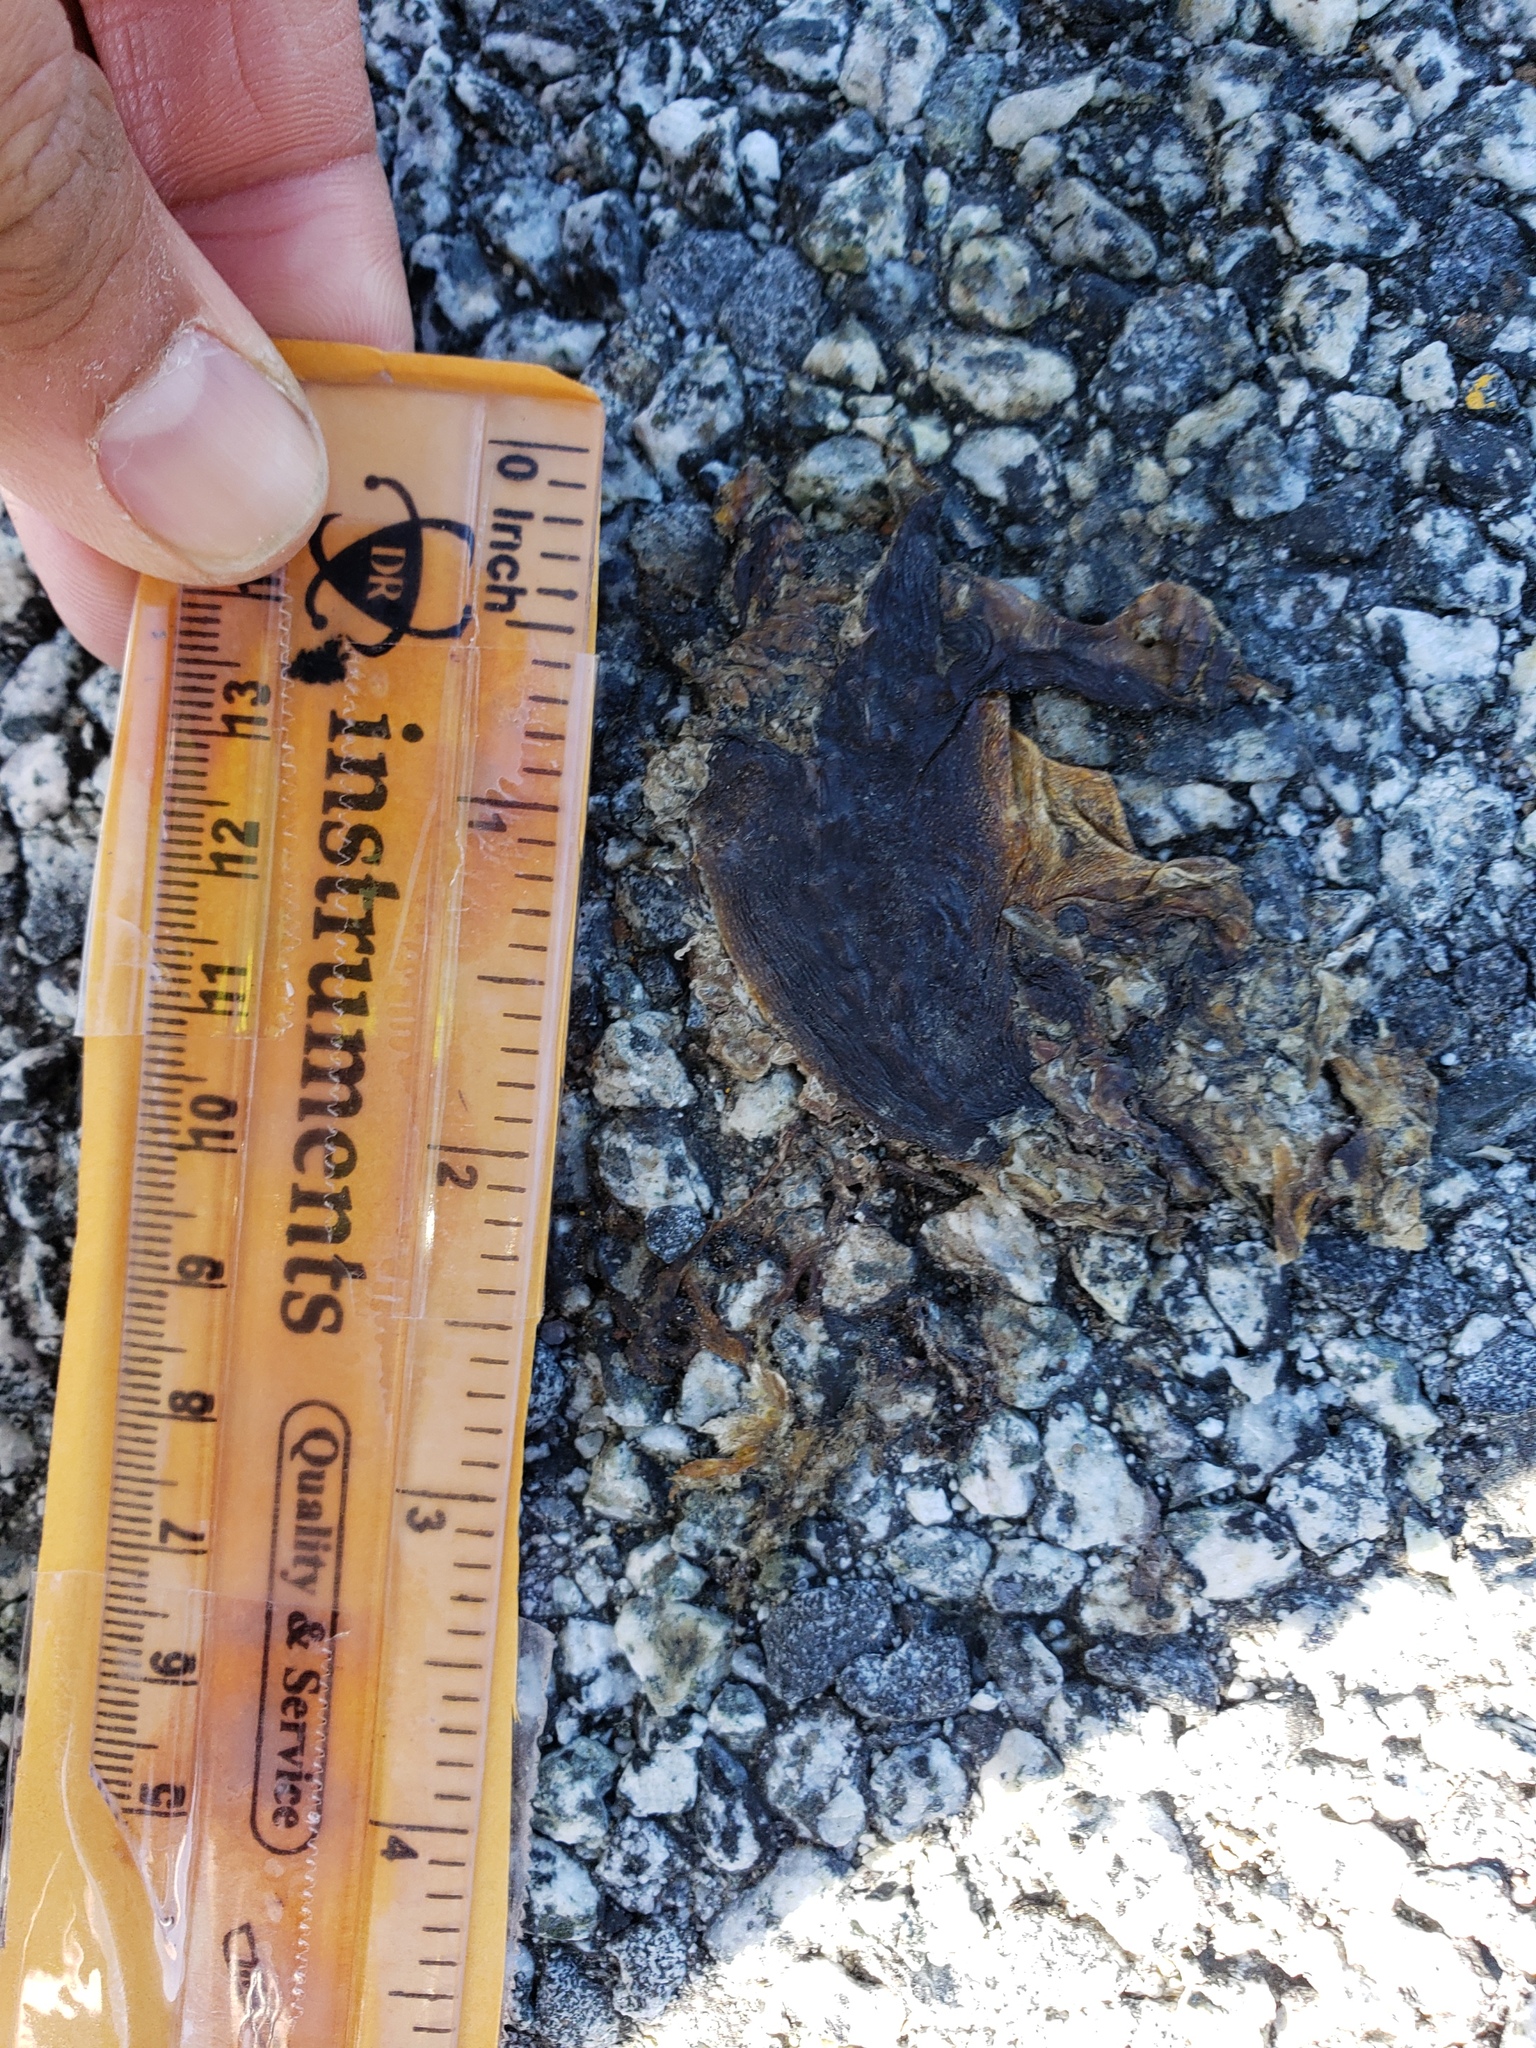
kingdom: Animalia
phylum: Chordata
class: Amphibia
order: Caudata
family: Salamandridae
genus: Taricha
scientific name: Taricha
